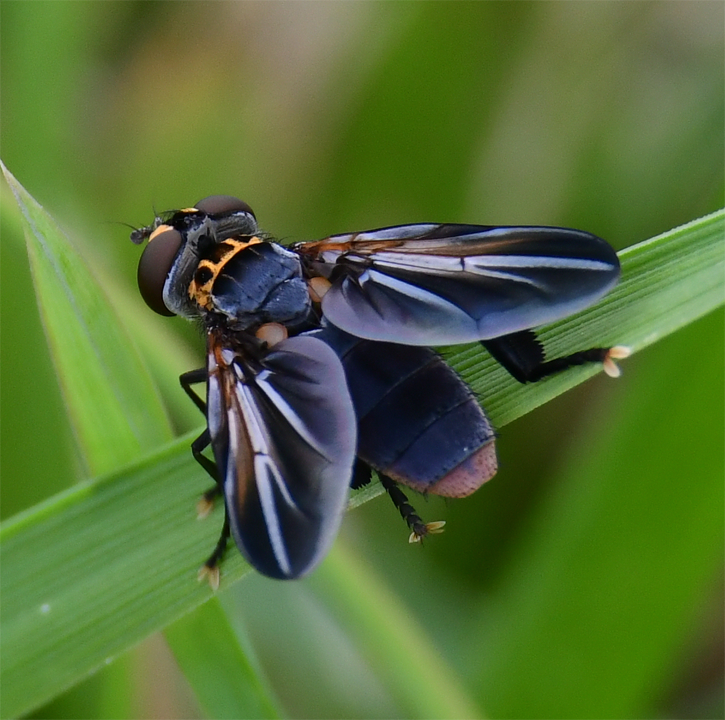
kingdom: Animalia
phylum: Arthropoda
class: Insecta
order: Diptera
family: Tachinidae
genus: Trichopoda
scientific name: Trichopoda lanipes
